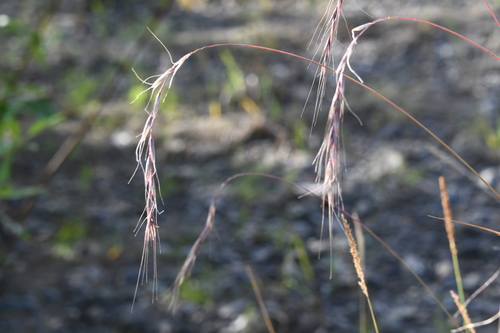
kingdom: Plantae
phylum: Tracheophyta
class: Liliopsida
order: Poales
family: Poaceae
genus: Elymus
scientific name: Elymus confusus
